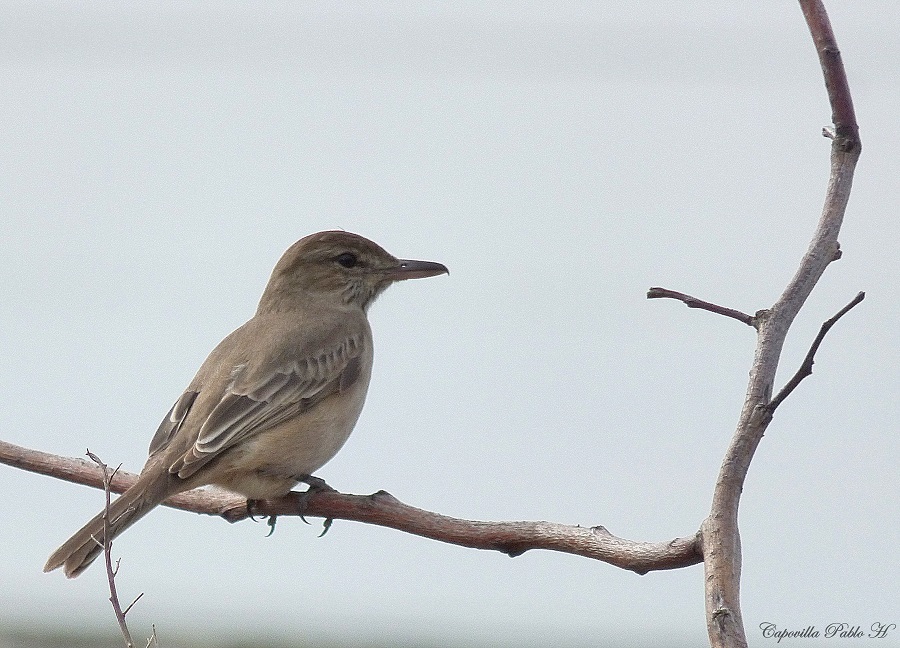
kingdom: Animalia
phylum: Chordata
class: Aves
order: Passeriformes
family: Tyrannidae
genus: Agriornis
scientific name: Agriornis micropterus
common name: Grey-bellied shrike-tyrant
